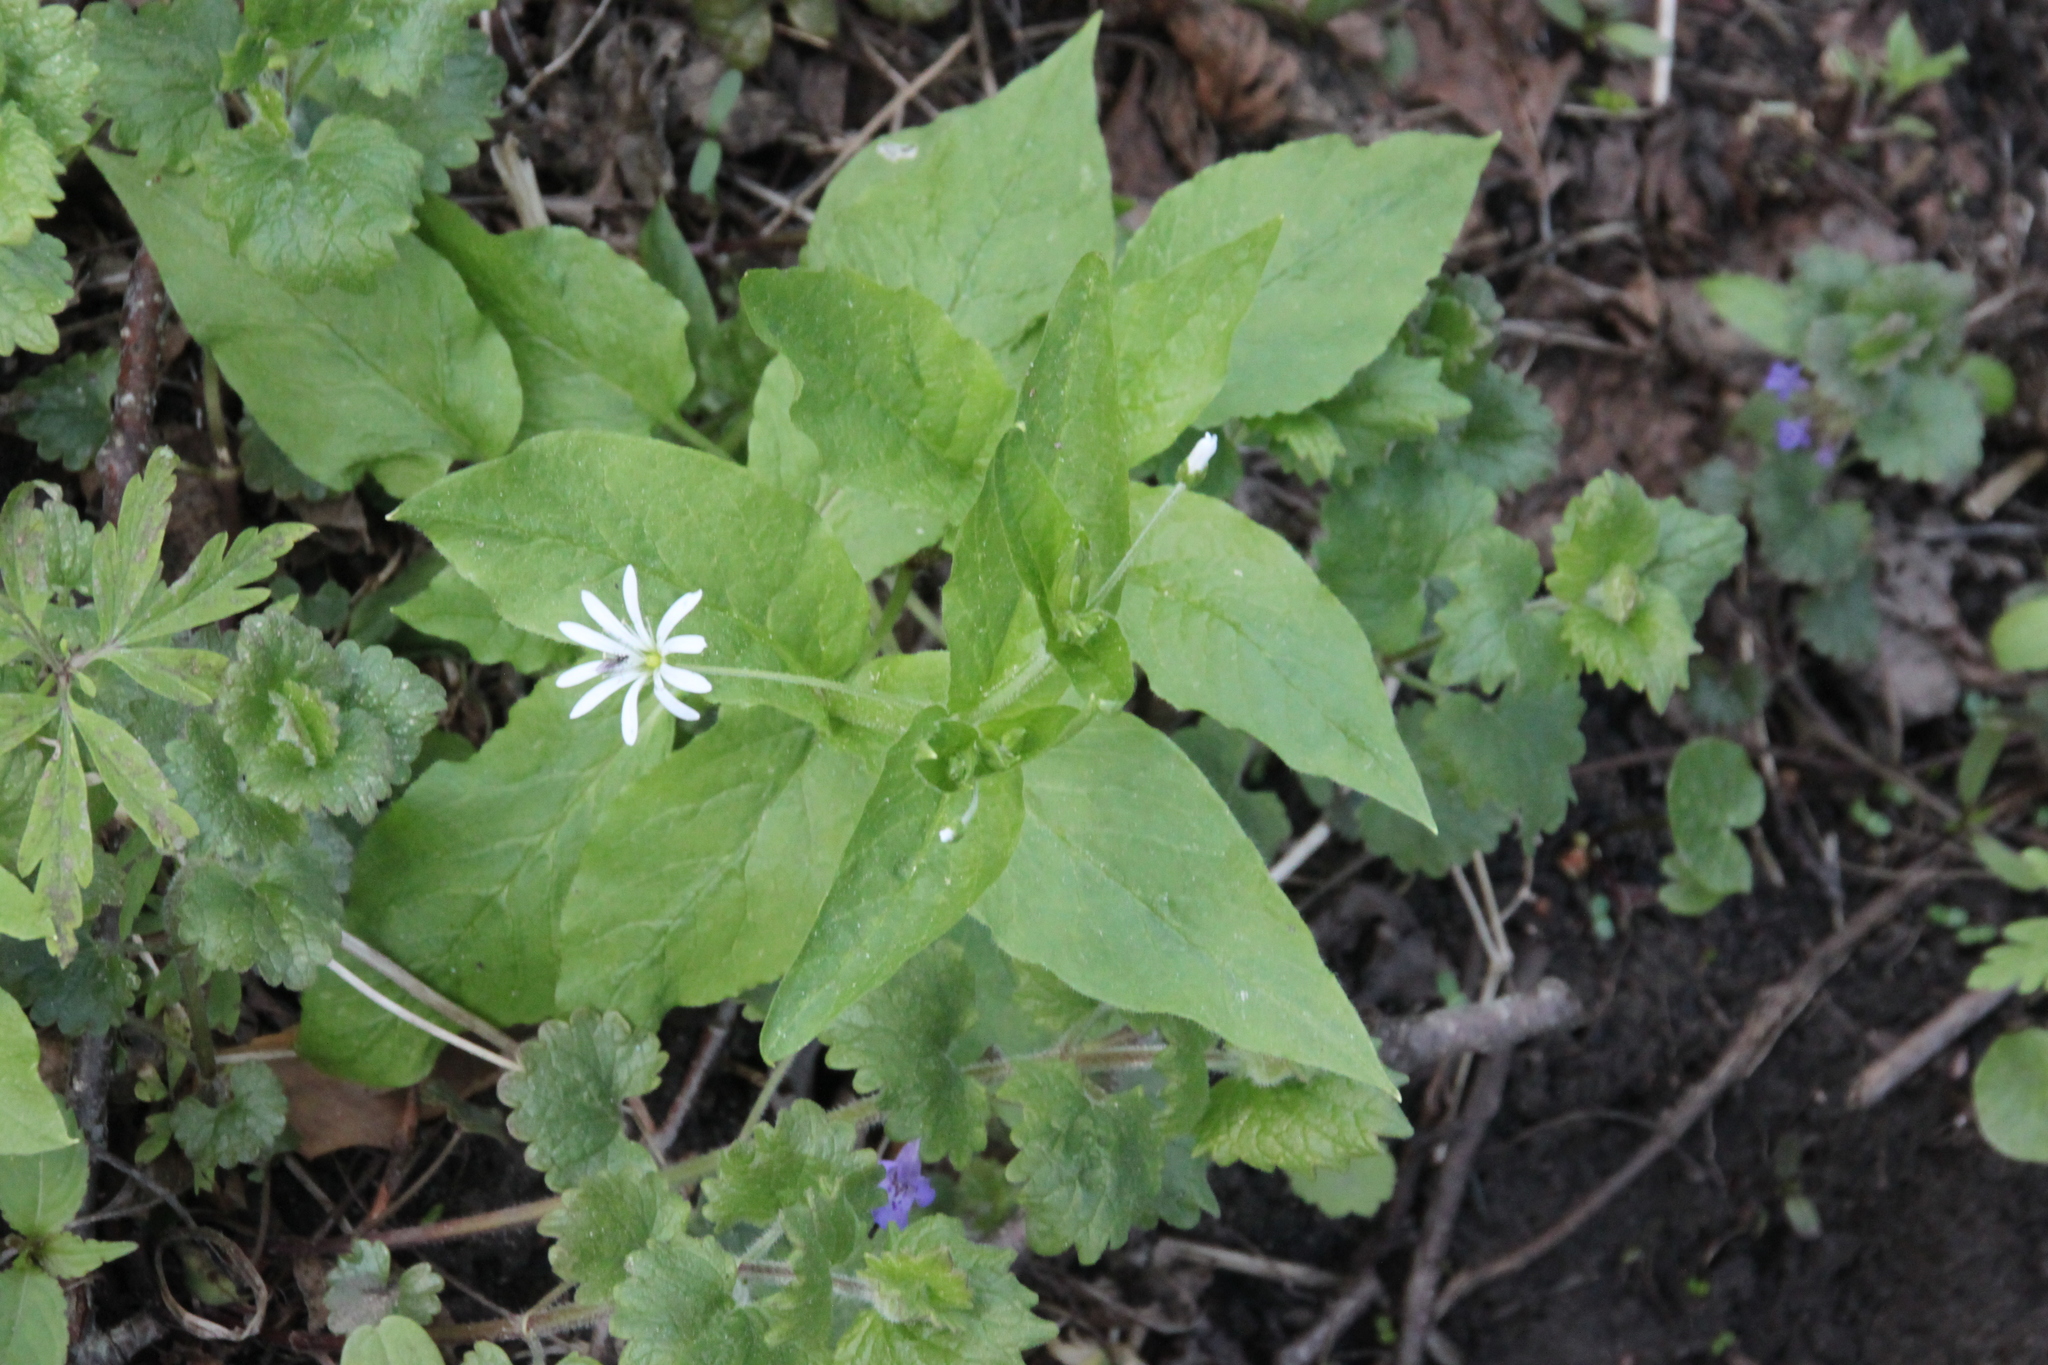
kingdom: Plantae
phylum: Tracheophyta
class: Magnoliopsida
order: Caryophyllales
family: Caryophyllaceae
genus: Stellaria
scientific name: Stellaria nemorum
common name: Wood stitchwort
